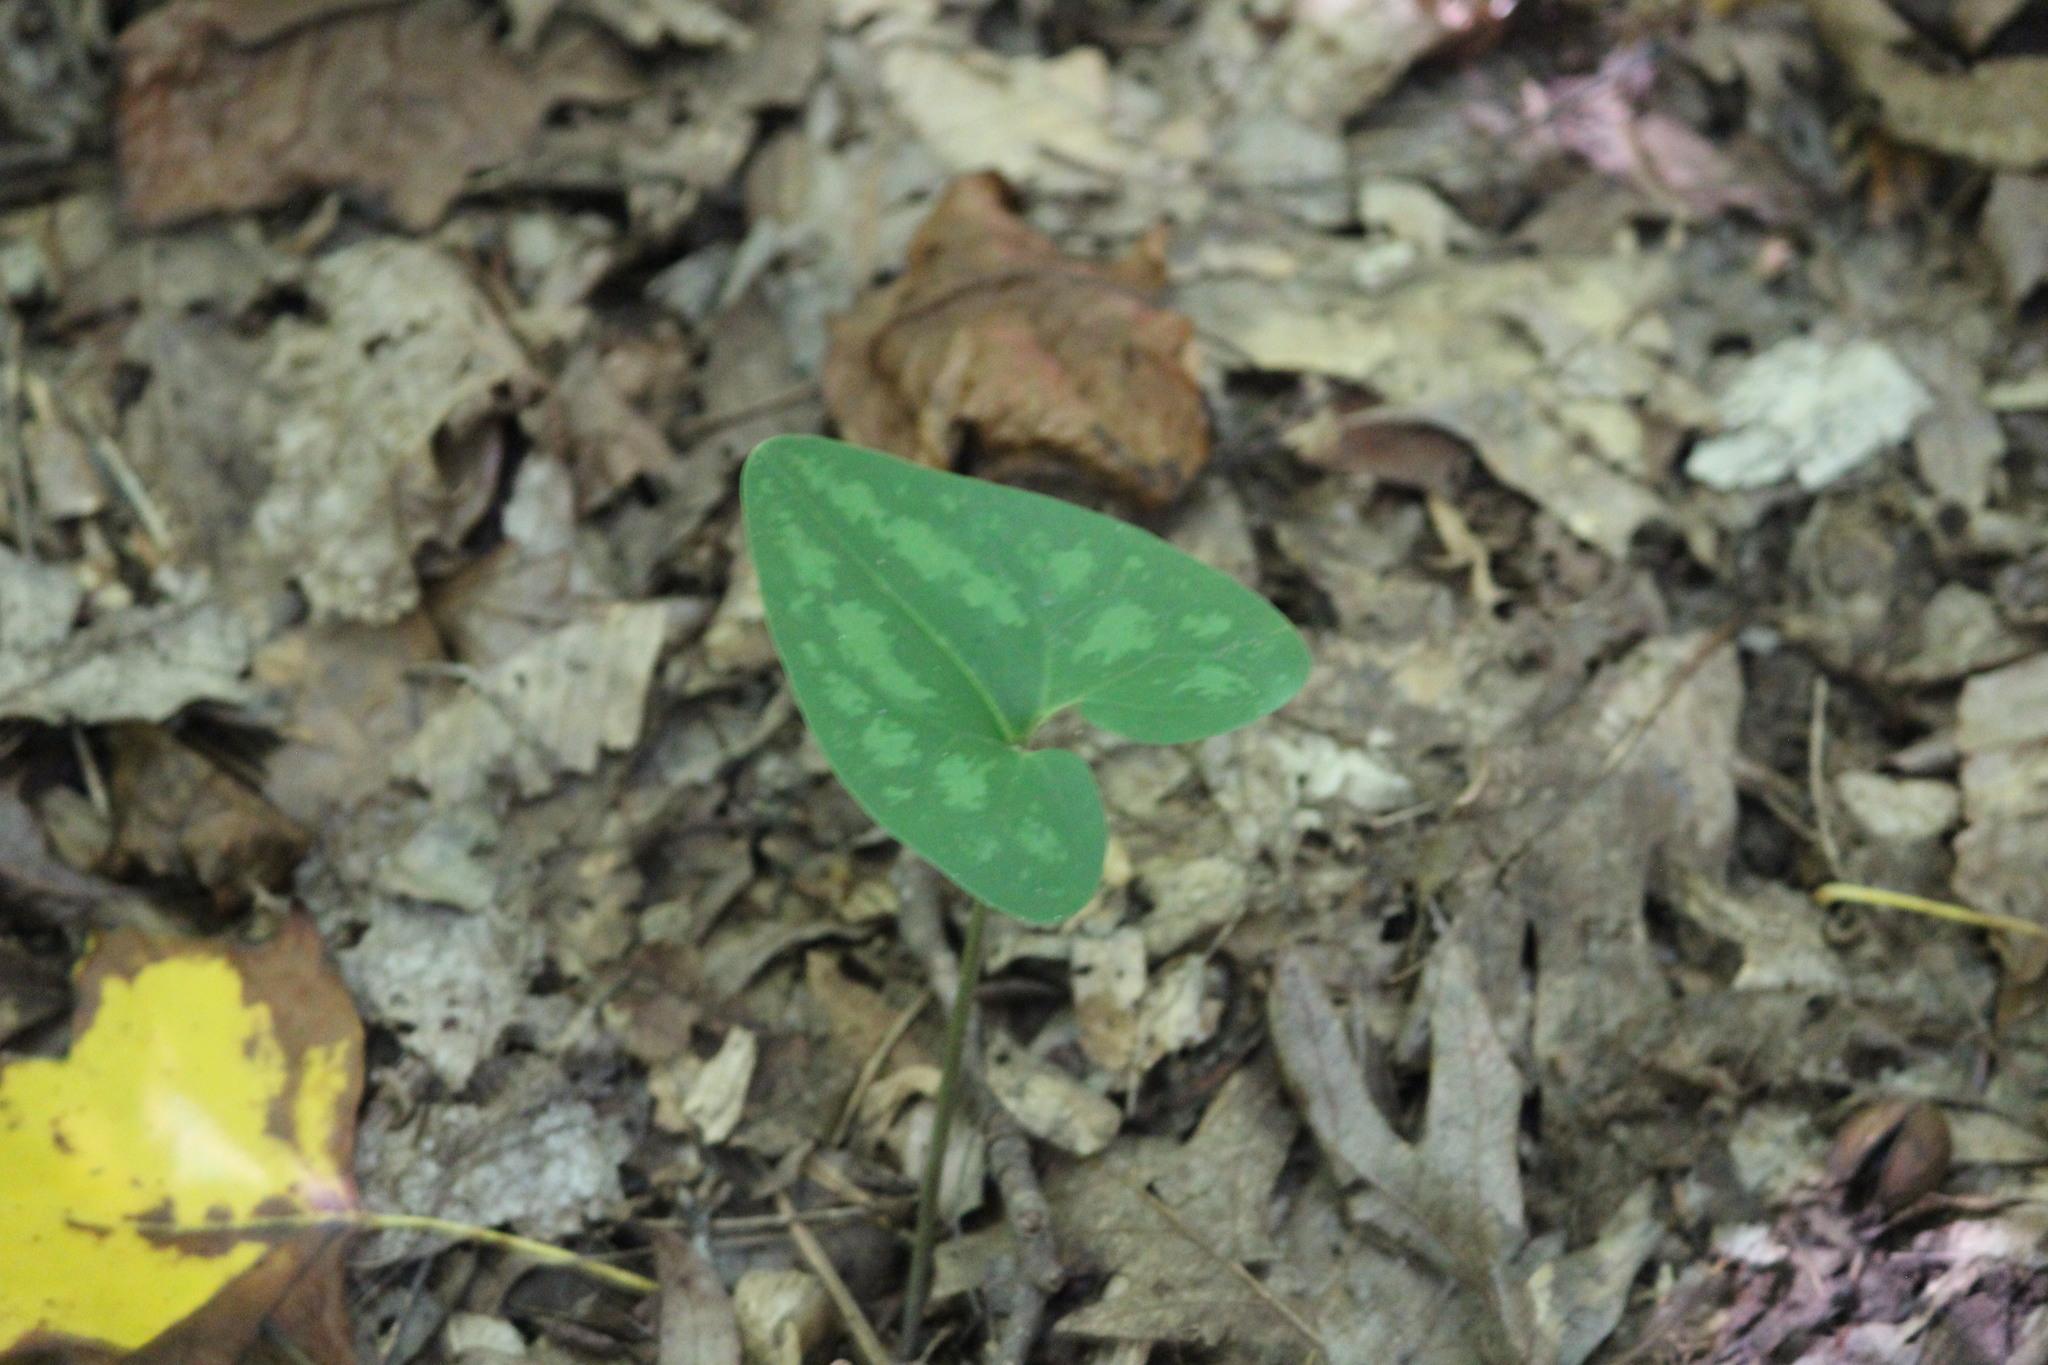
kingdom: Plantae
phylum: Tracheophyta
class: Magnoliopsida
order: Piperales
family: Aristolochiaceae
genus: Hexastylis
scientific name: Hexastylis arifolia
